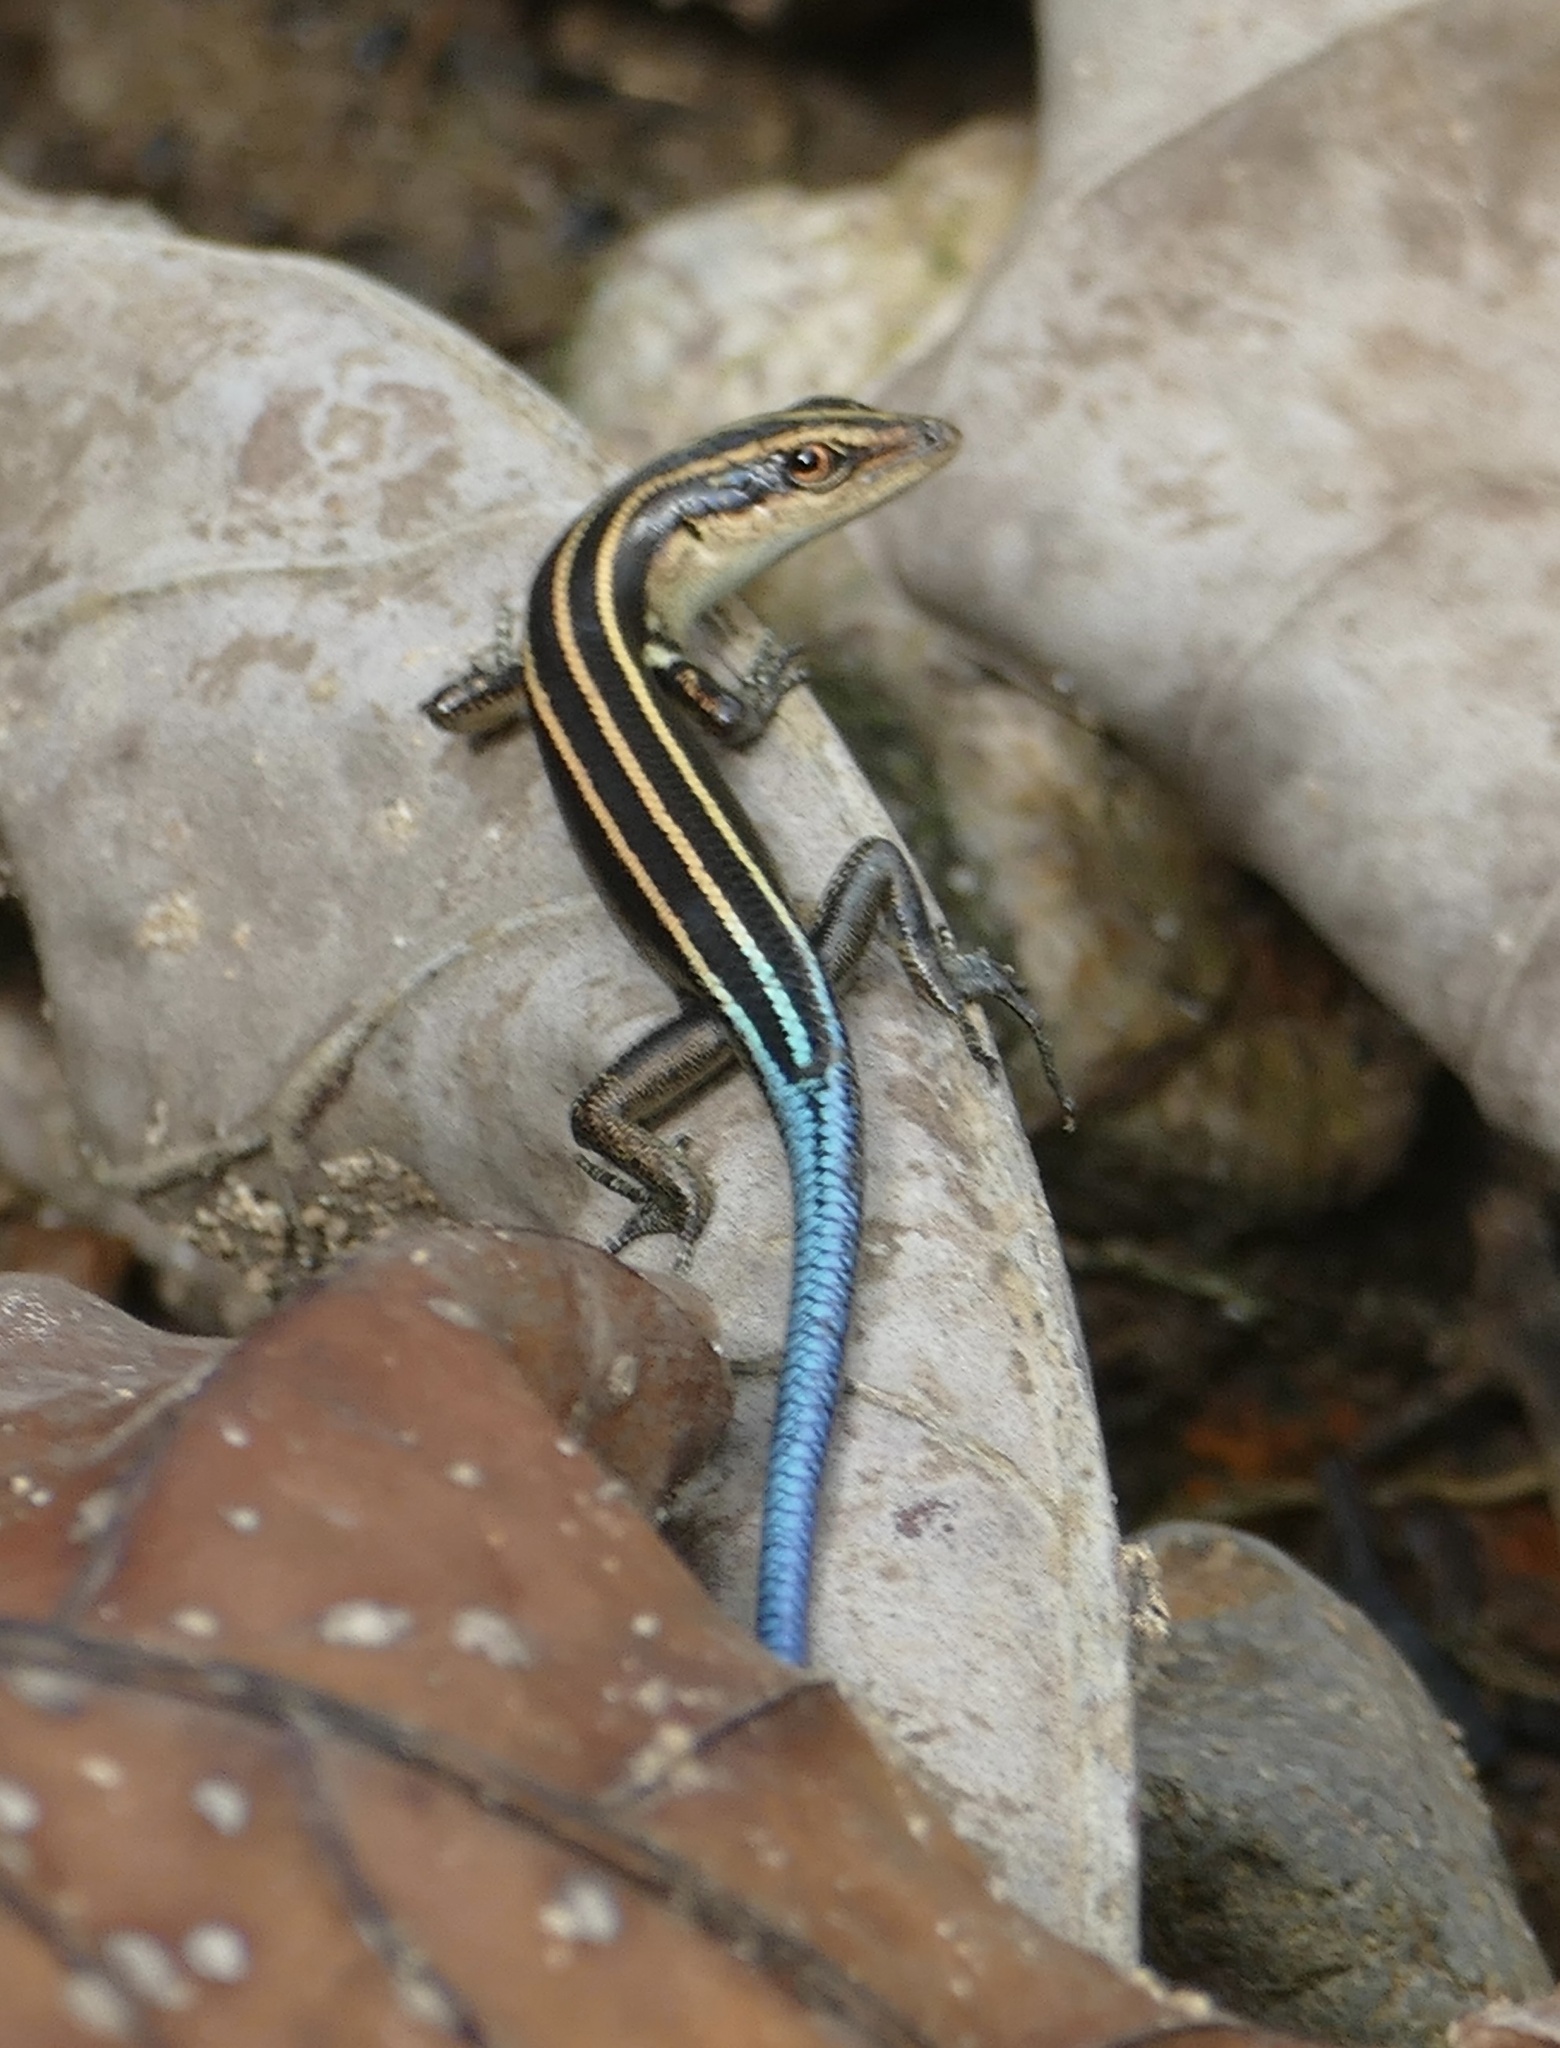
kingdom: Animalia
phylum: Chordata
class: Squamata
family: Scincidae
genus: Emoia
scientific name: Emoia caeruleocauda
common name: Pacific bluetail skink
